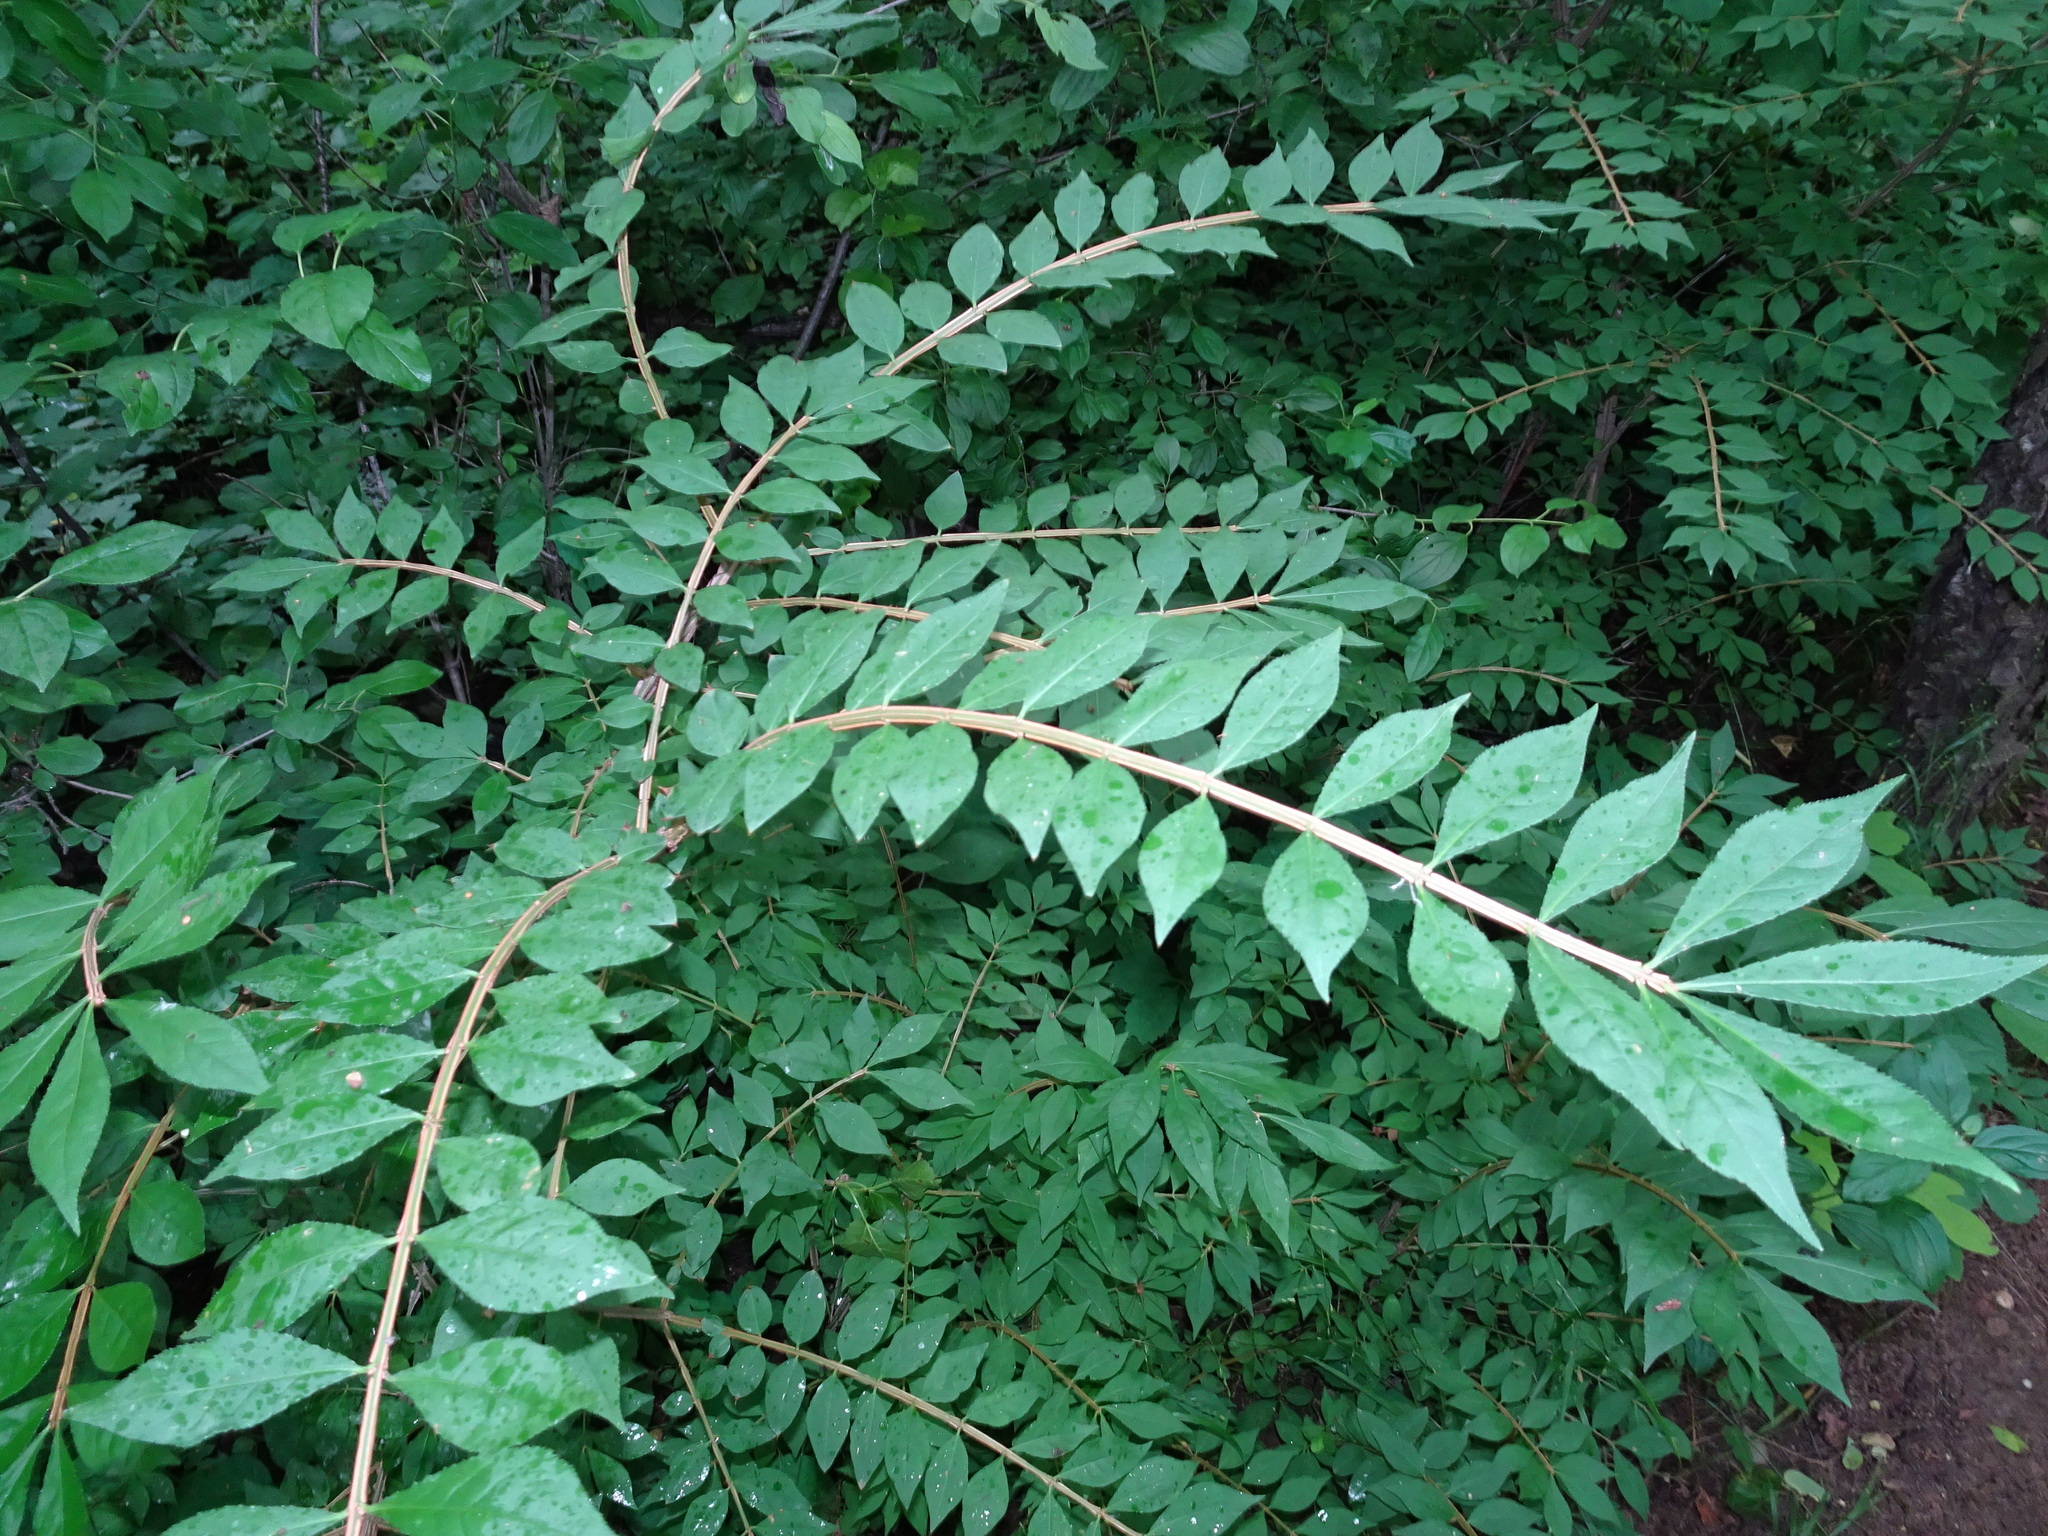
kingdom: Plantae
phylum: Tracheophyta
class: Magnoliopsida
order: Celastrales
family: Celastraceae
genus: Euonymus
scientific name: Euonymus alatus
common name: Winged euonymus
